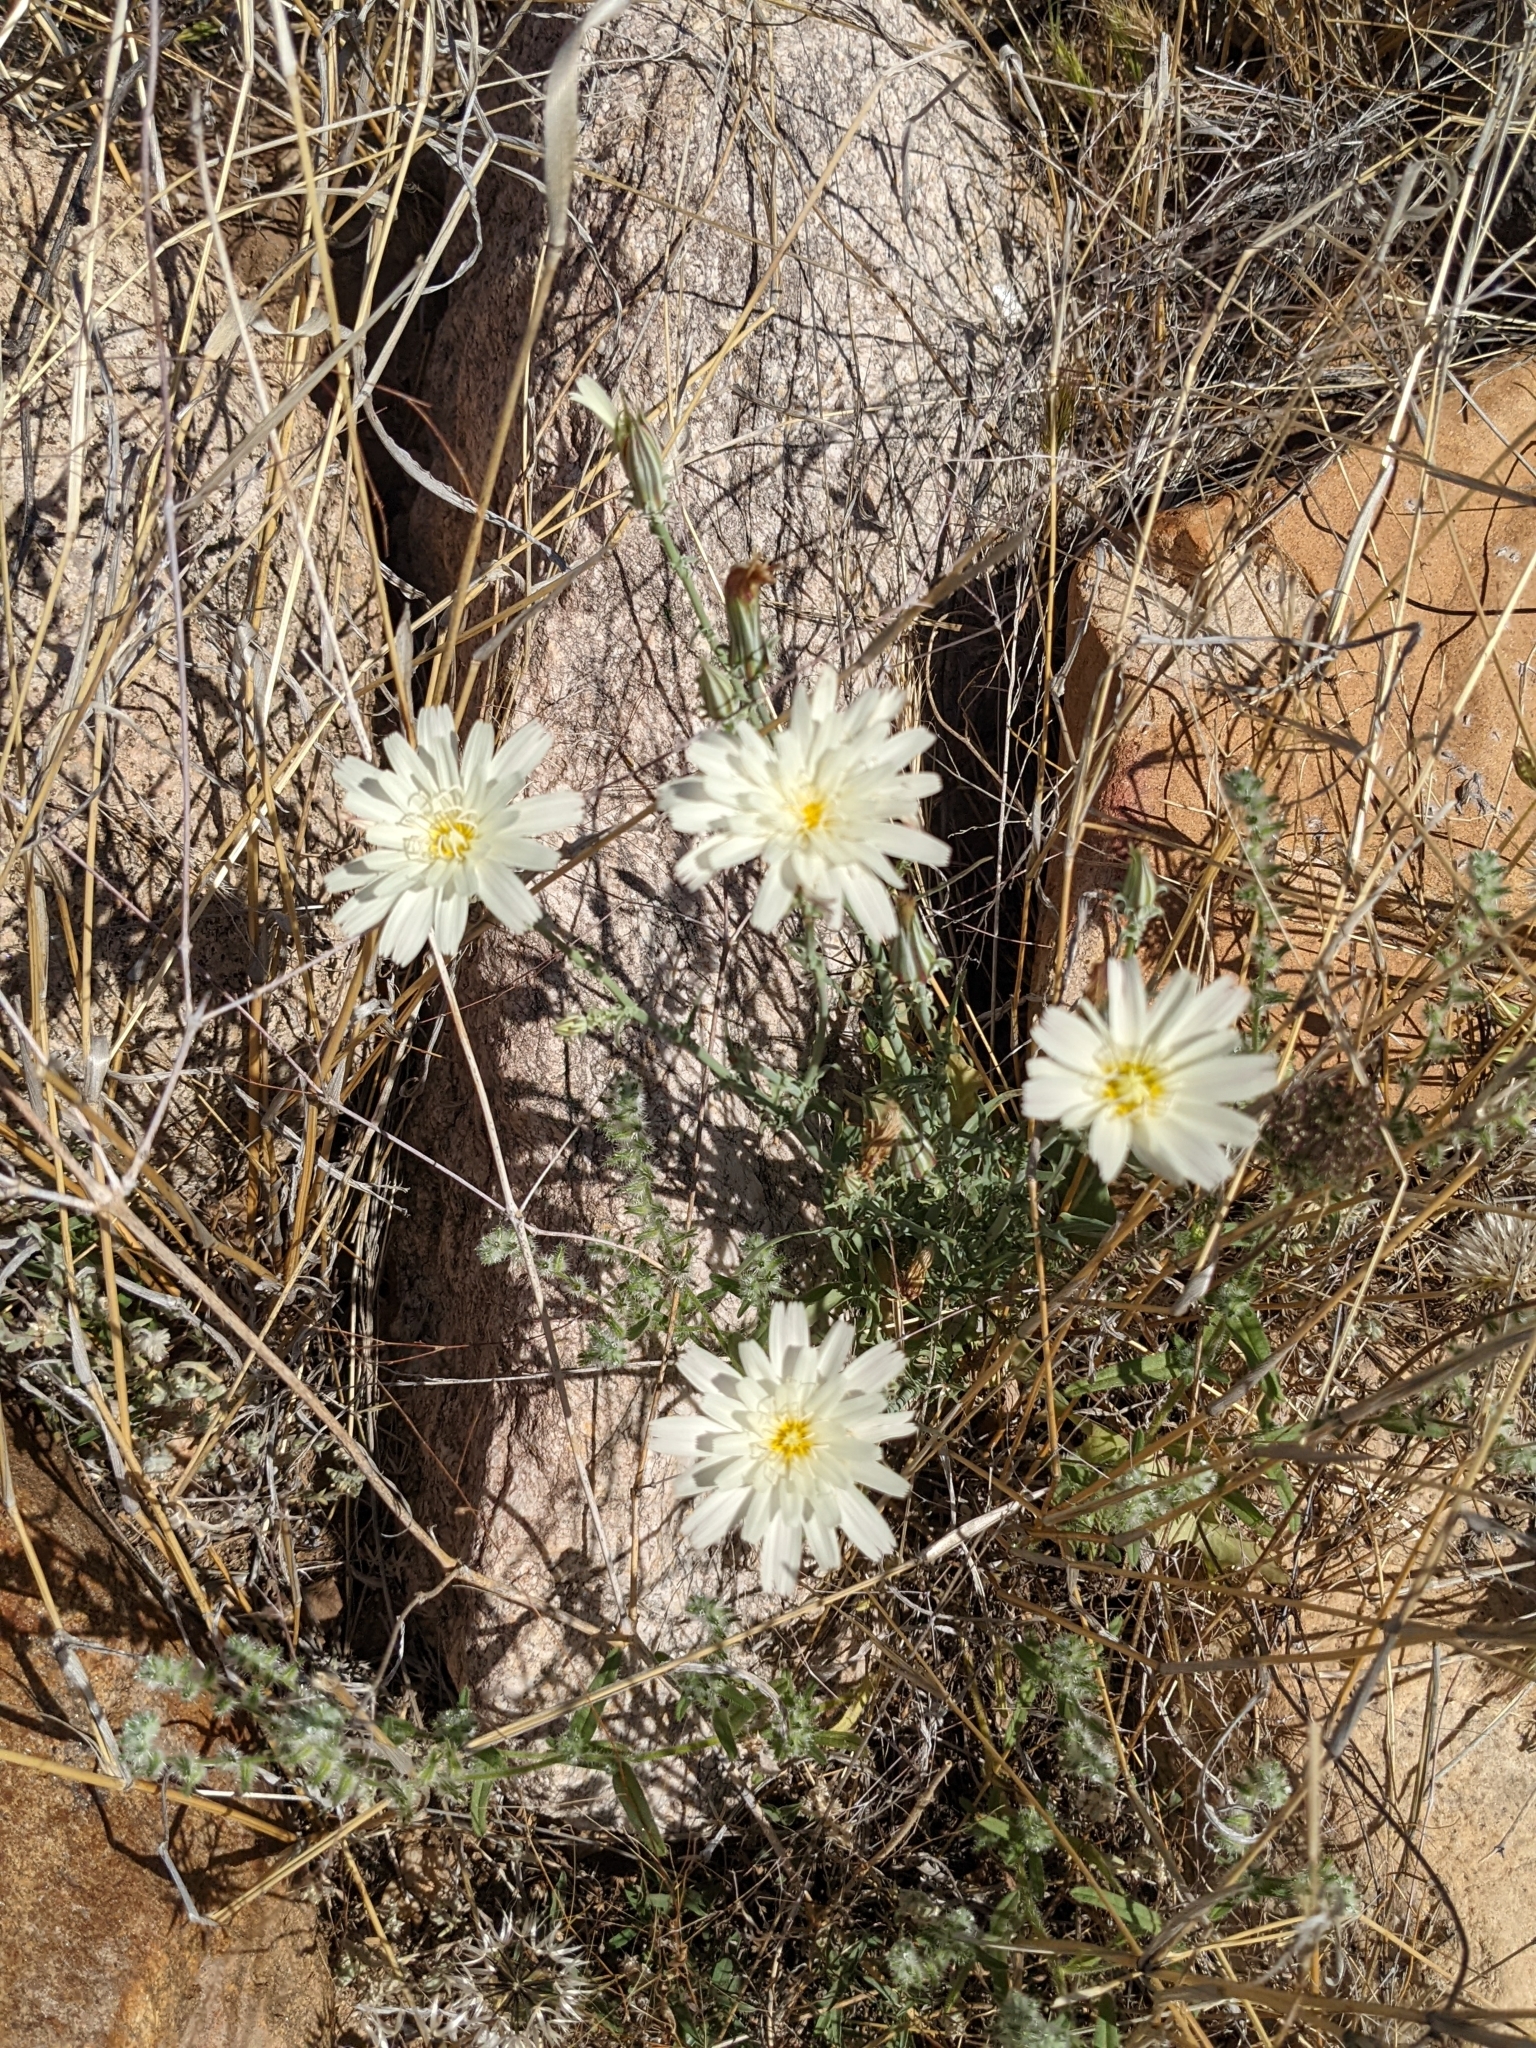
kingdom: Plantae
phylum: Tracheophyta
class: Magnoliopsida
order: Asterales
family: Asteraceae
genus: Rafinesquia
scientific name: Rafinesquia neomexicana
